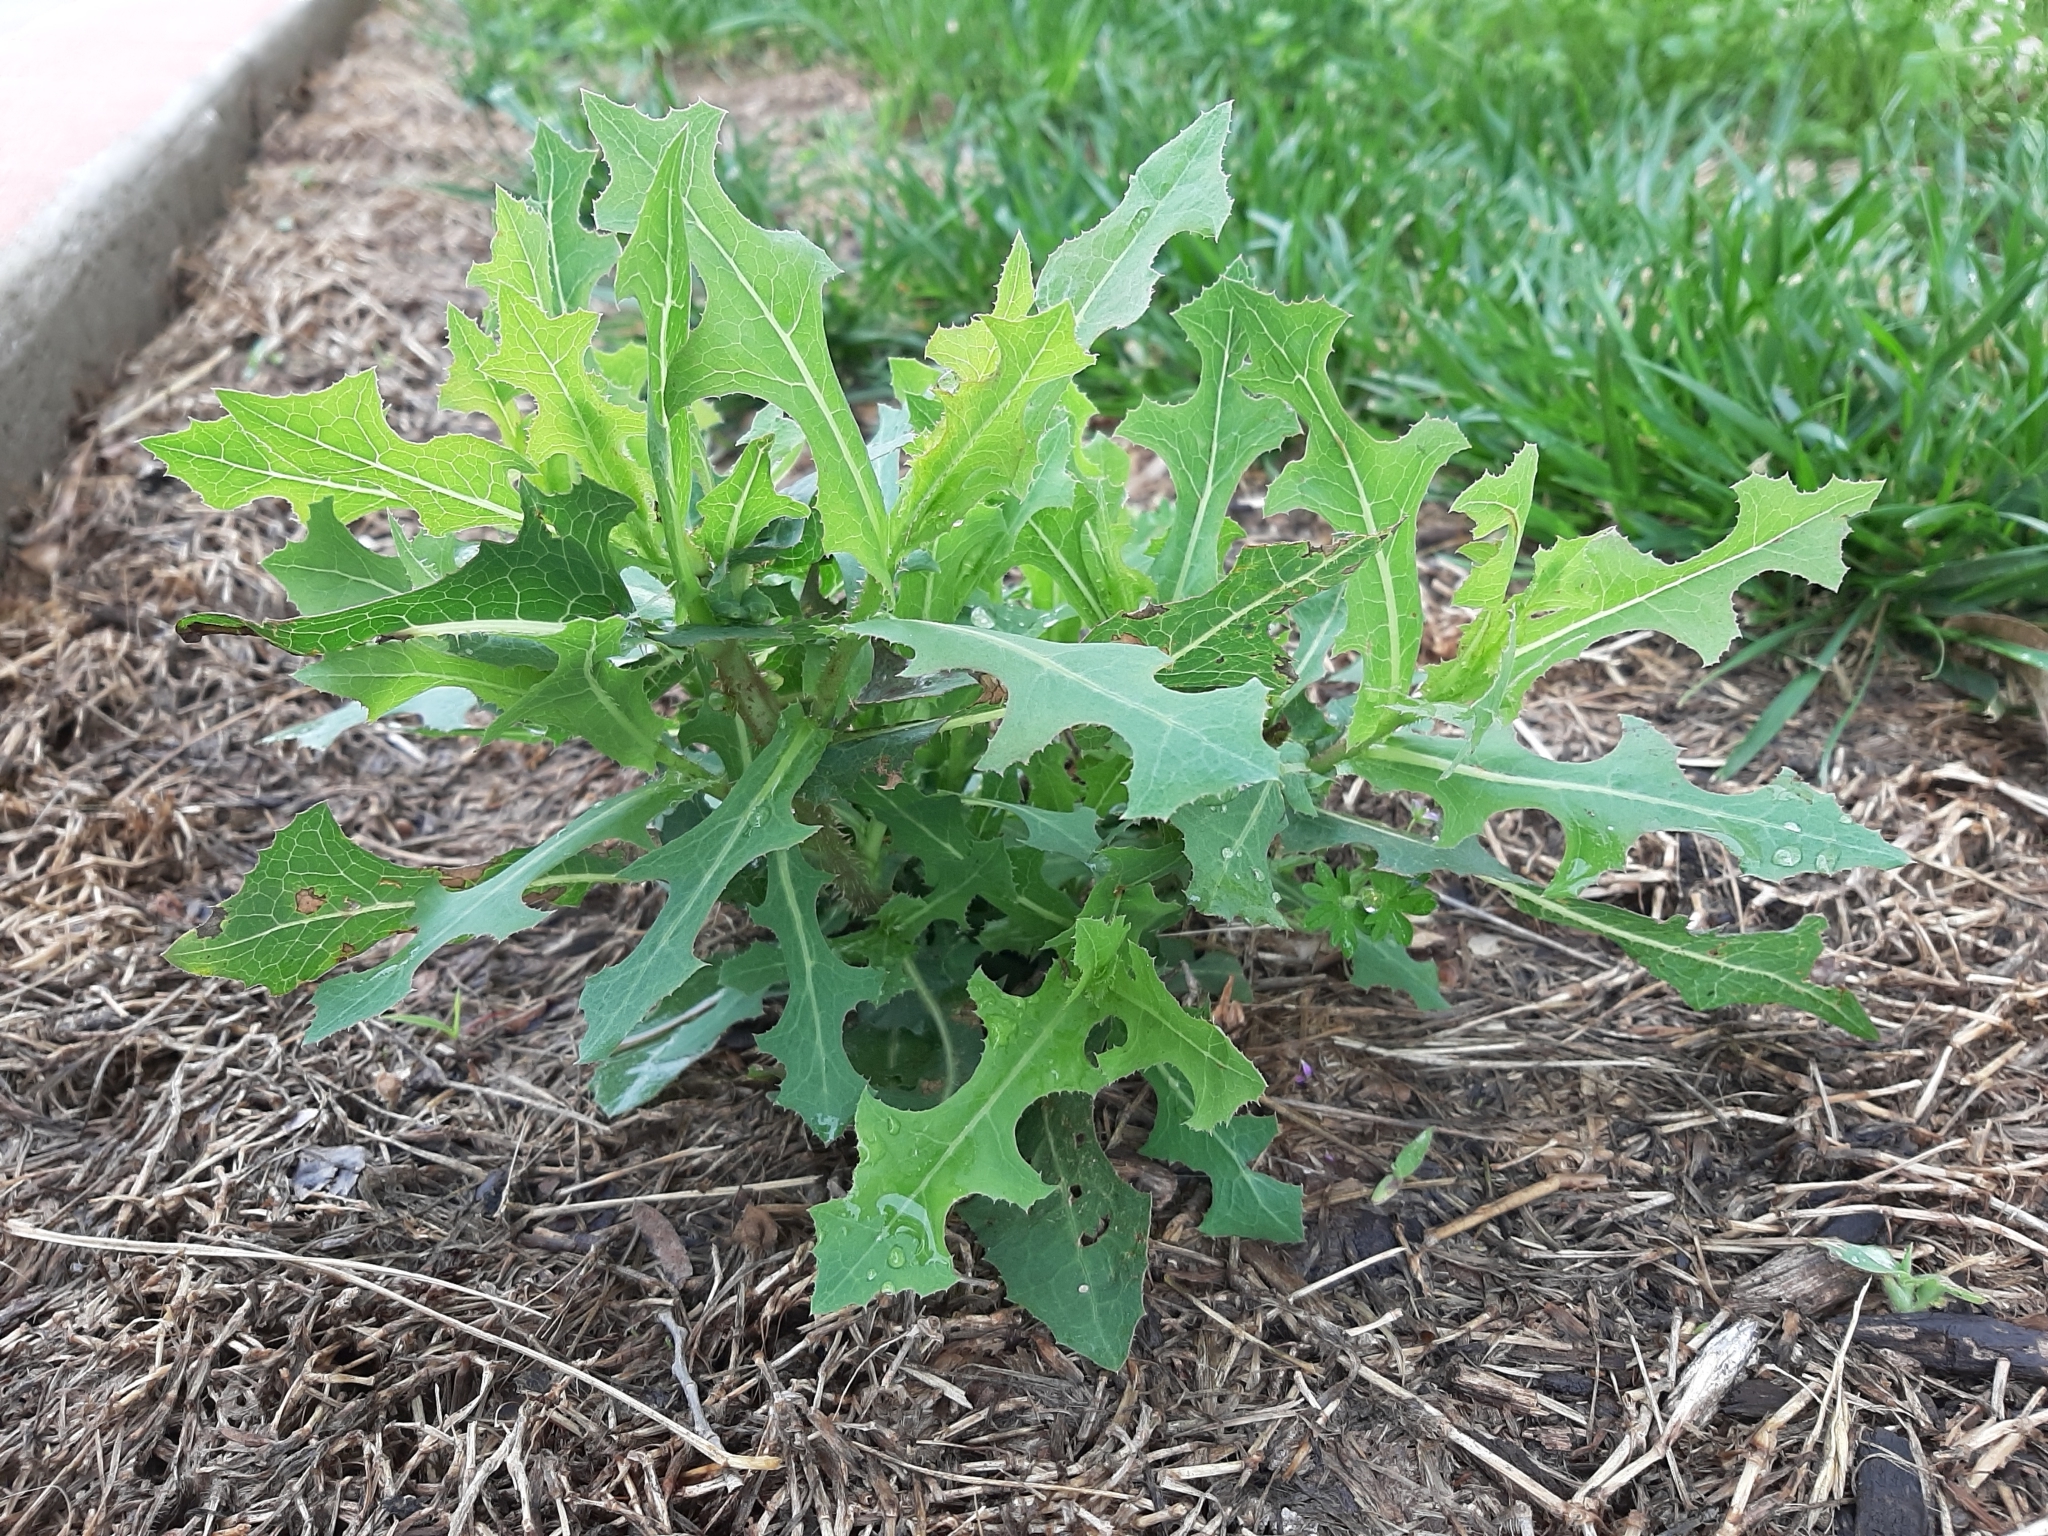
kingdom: Plantae
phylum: Tracheophyta
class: Magnoliopsida
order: Asterales
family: Asteraceae
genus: Lactuca
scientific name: Lactuca serriola
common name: Prickly lettuce
